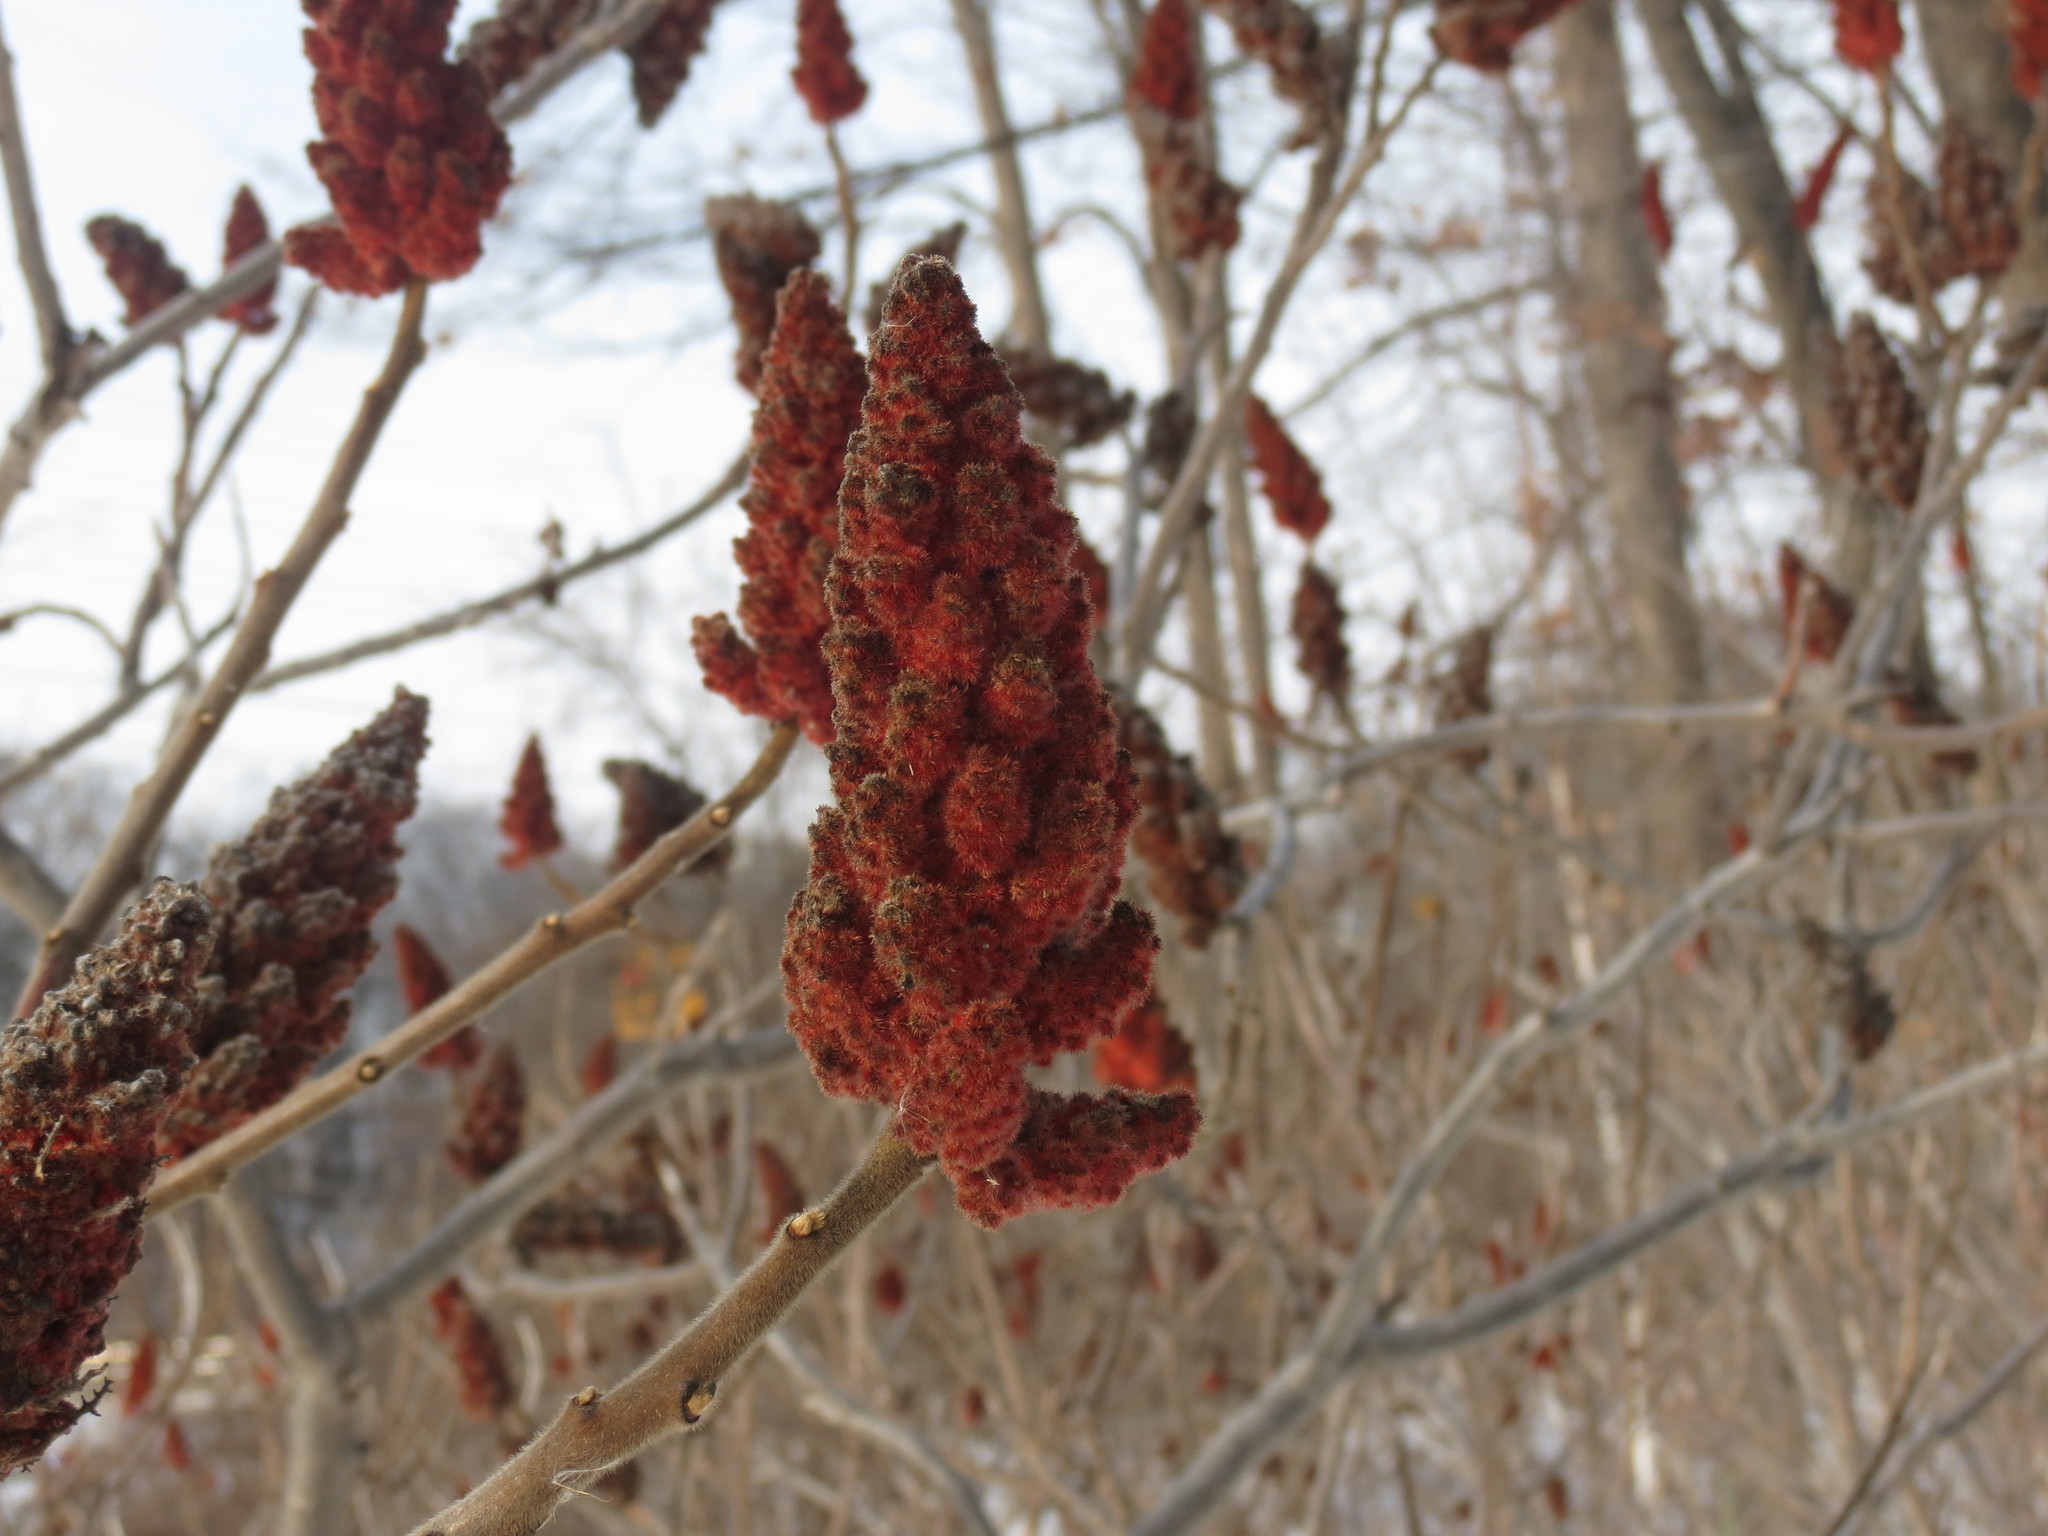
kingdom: Plantae
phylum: Tracheophyta
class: Magnoliopsida
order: Sapindales
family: Anacardiaceae
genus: Rhus
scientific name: Rhus typhina
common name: Staghorn sumac
